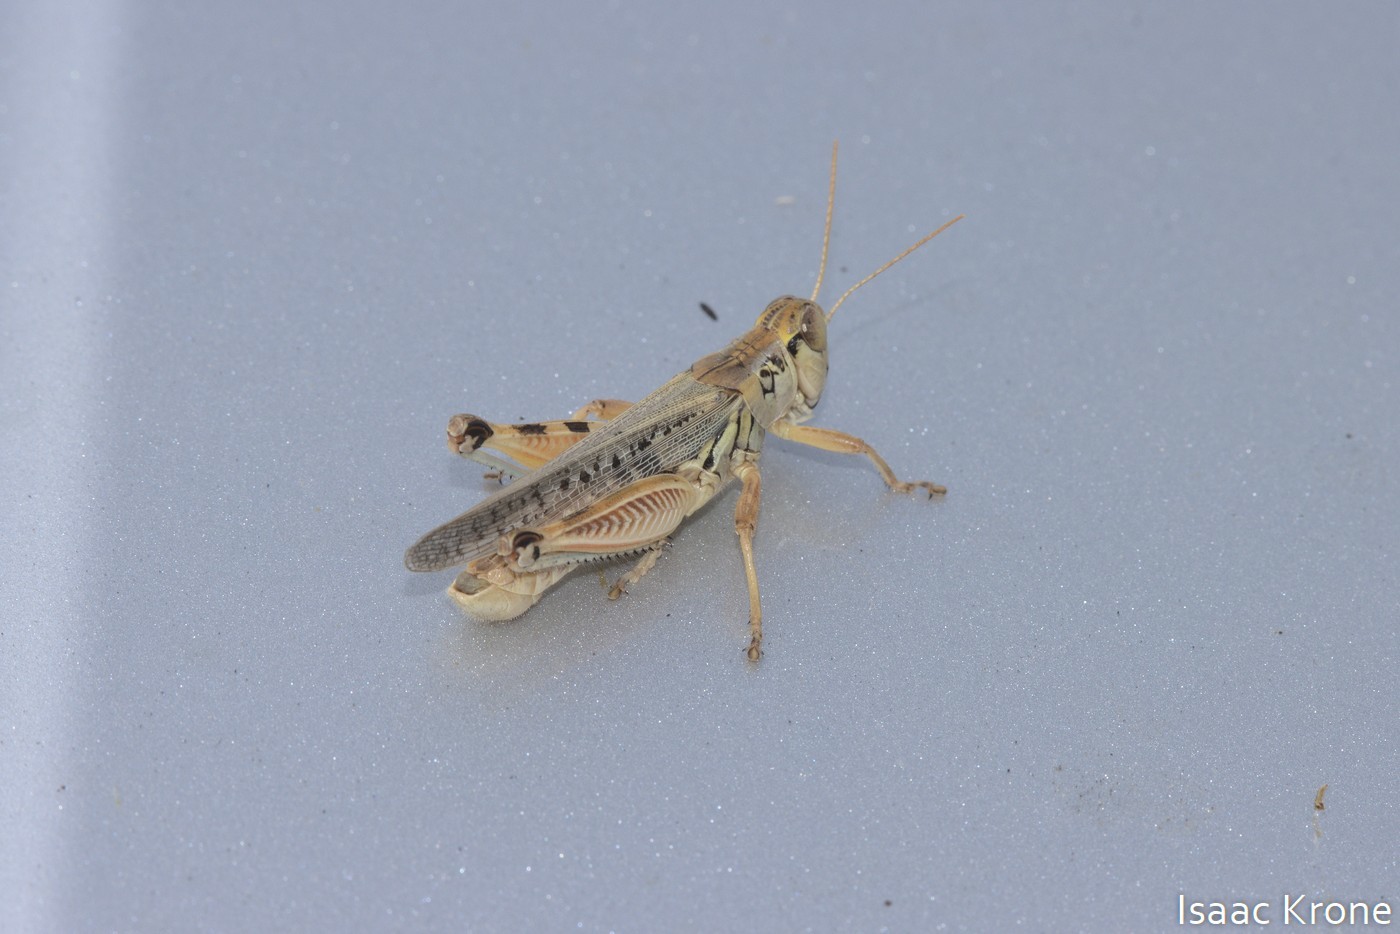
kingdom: Animalia
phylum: Arthropoda
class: Insecta
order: Orthoptera
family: Acrididae
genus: Melanoplus
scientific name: Melanoplus sanguinipes
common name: Migratory grasshopper
